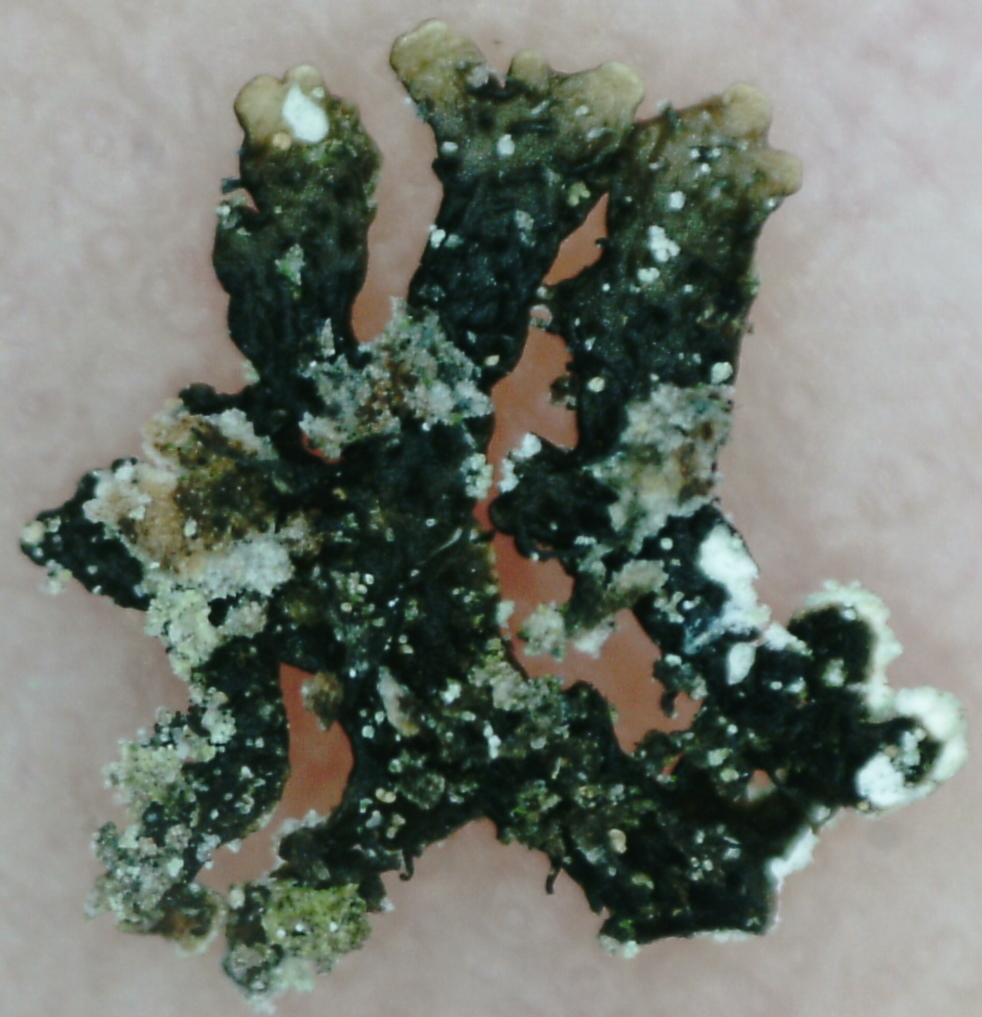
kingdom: Fungi
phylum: Ascomycota
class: Lecanoromycetes
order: Lecanorales
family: Parmeliaceae
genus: Parmeliopsis
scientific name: Parmeliopsis hyperopta
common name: Grey starburst lichen
